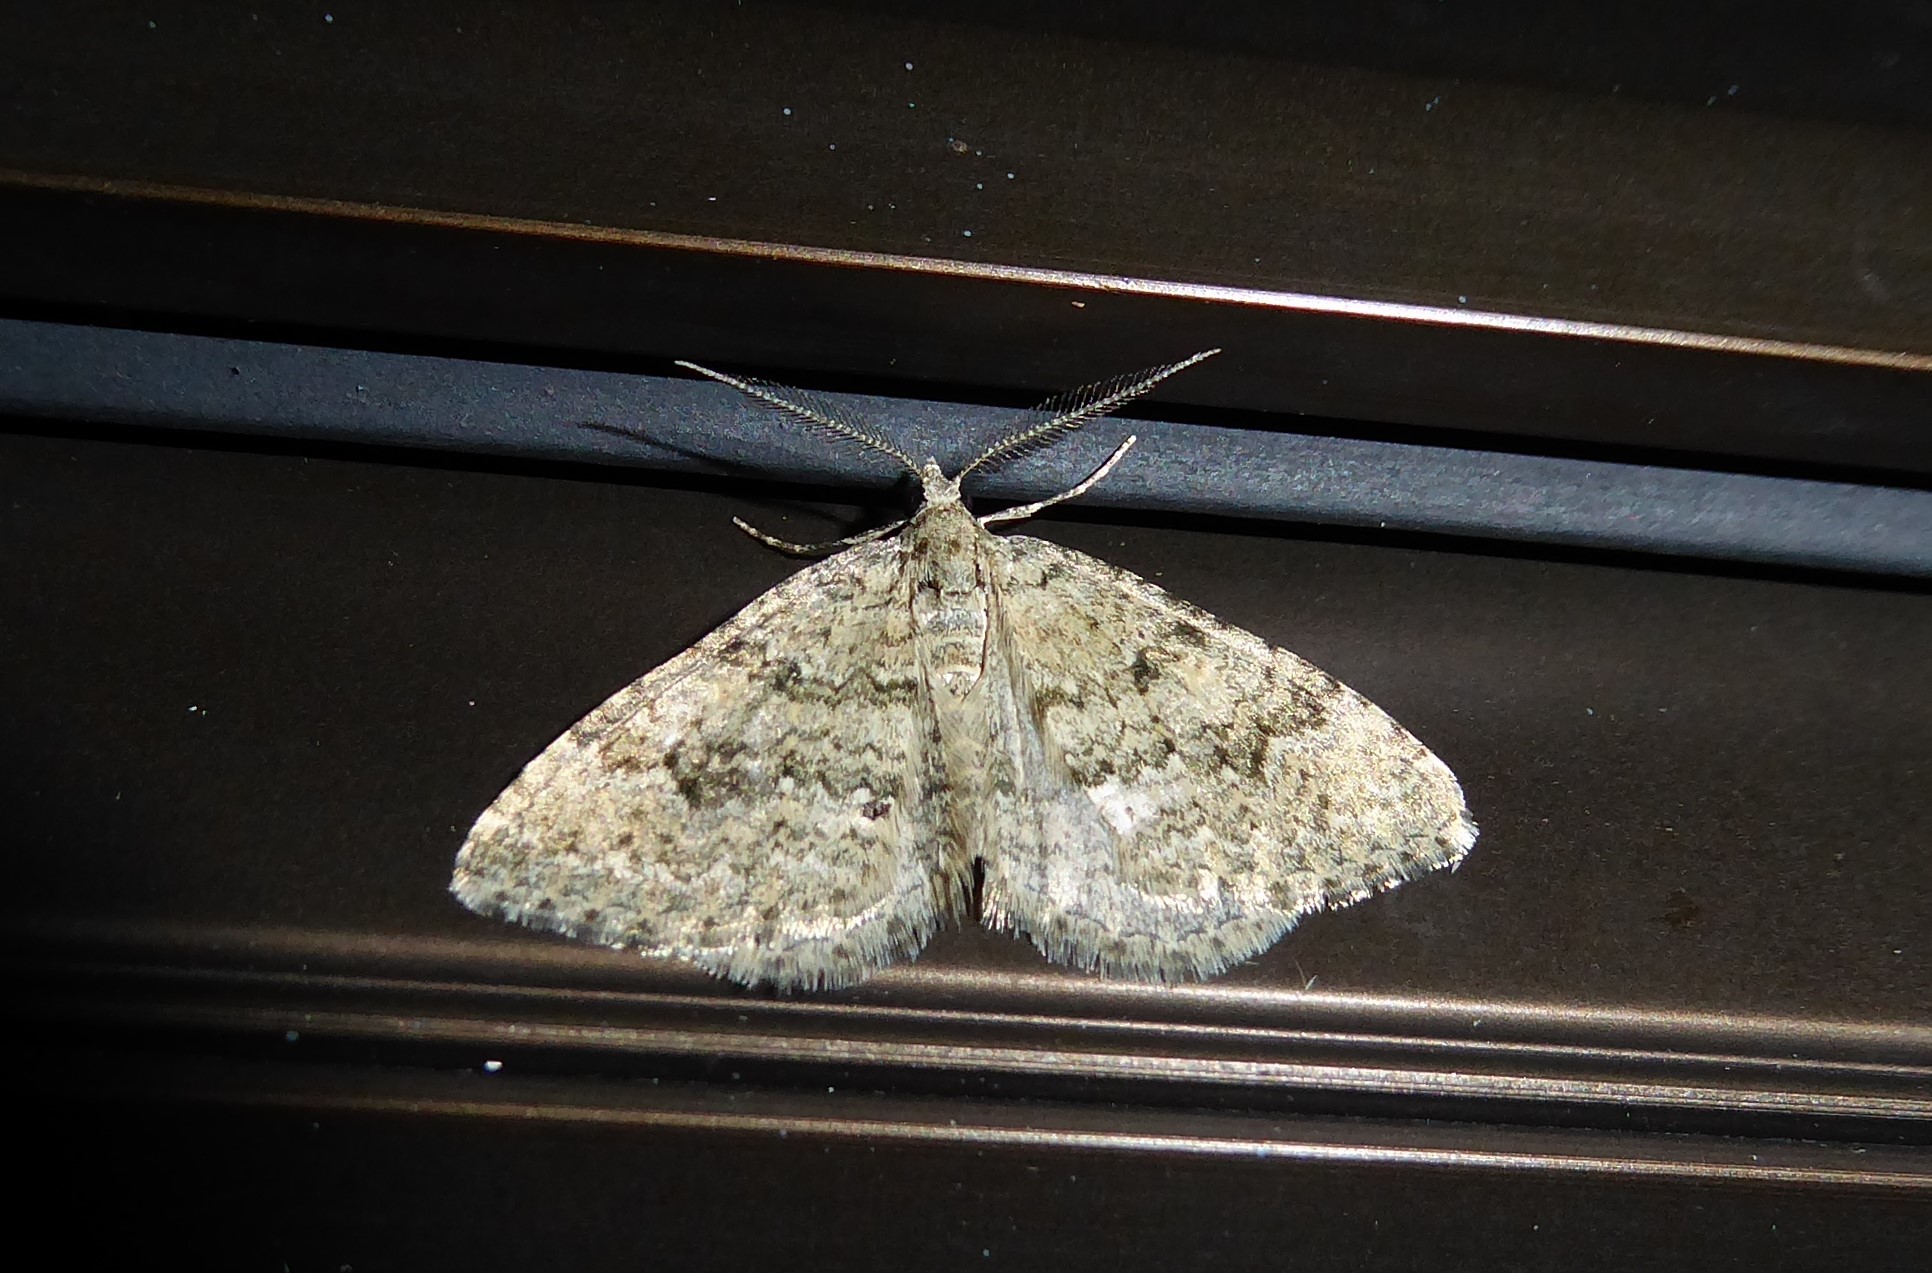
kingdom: Animalia
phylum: Arthropoda
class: Insecta
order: Lepidoptera
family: Geometridae
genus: Helastia
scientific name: Helastia corcularia
